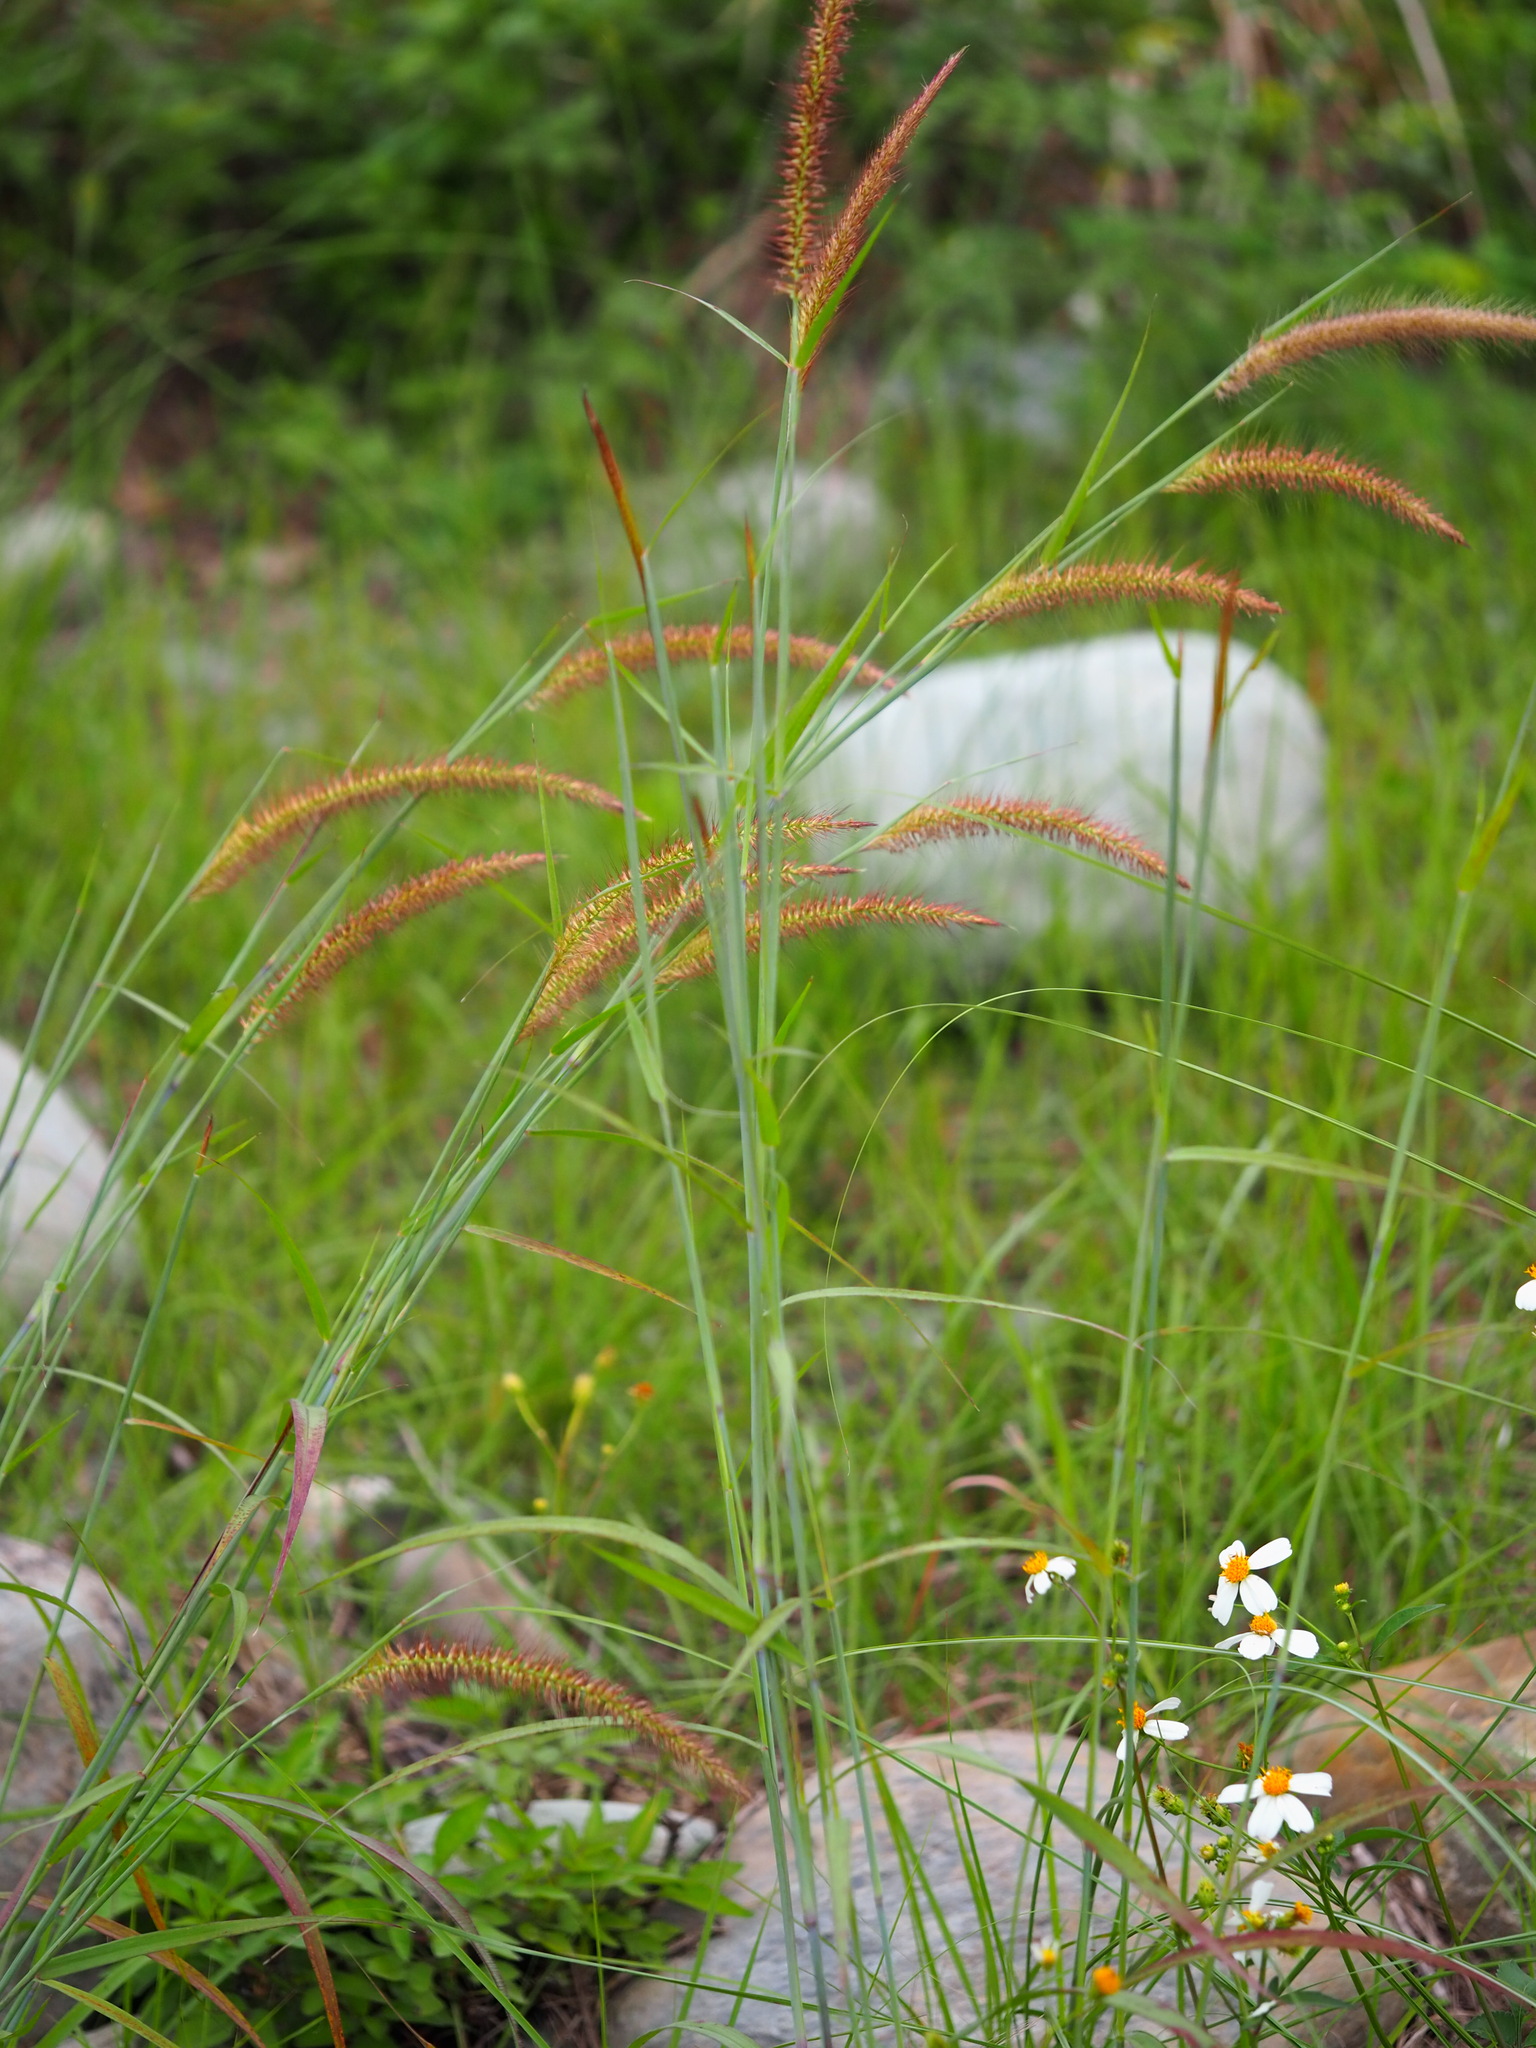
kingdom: Plantae
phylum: Tracheophyta
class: Liliopsida
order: Poales
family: Poaceae
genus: Cenchrus
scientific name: Cenchrus setosus
